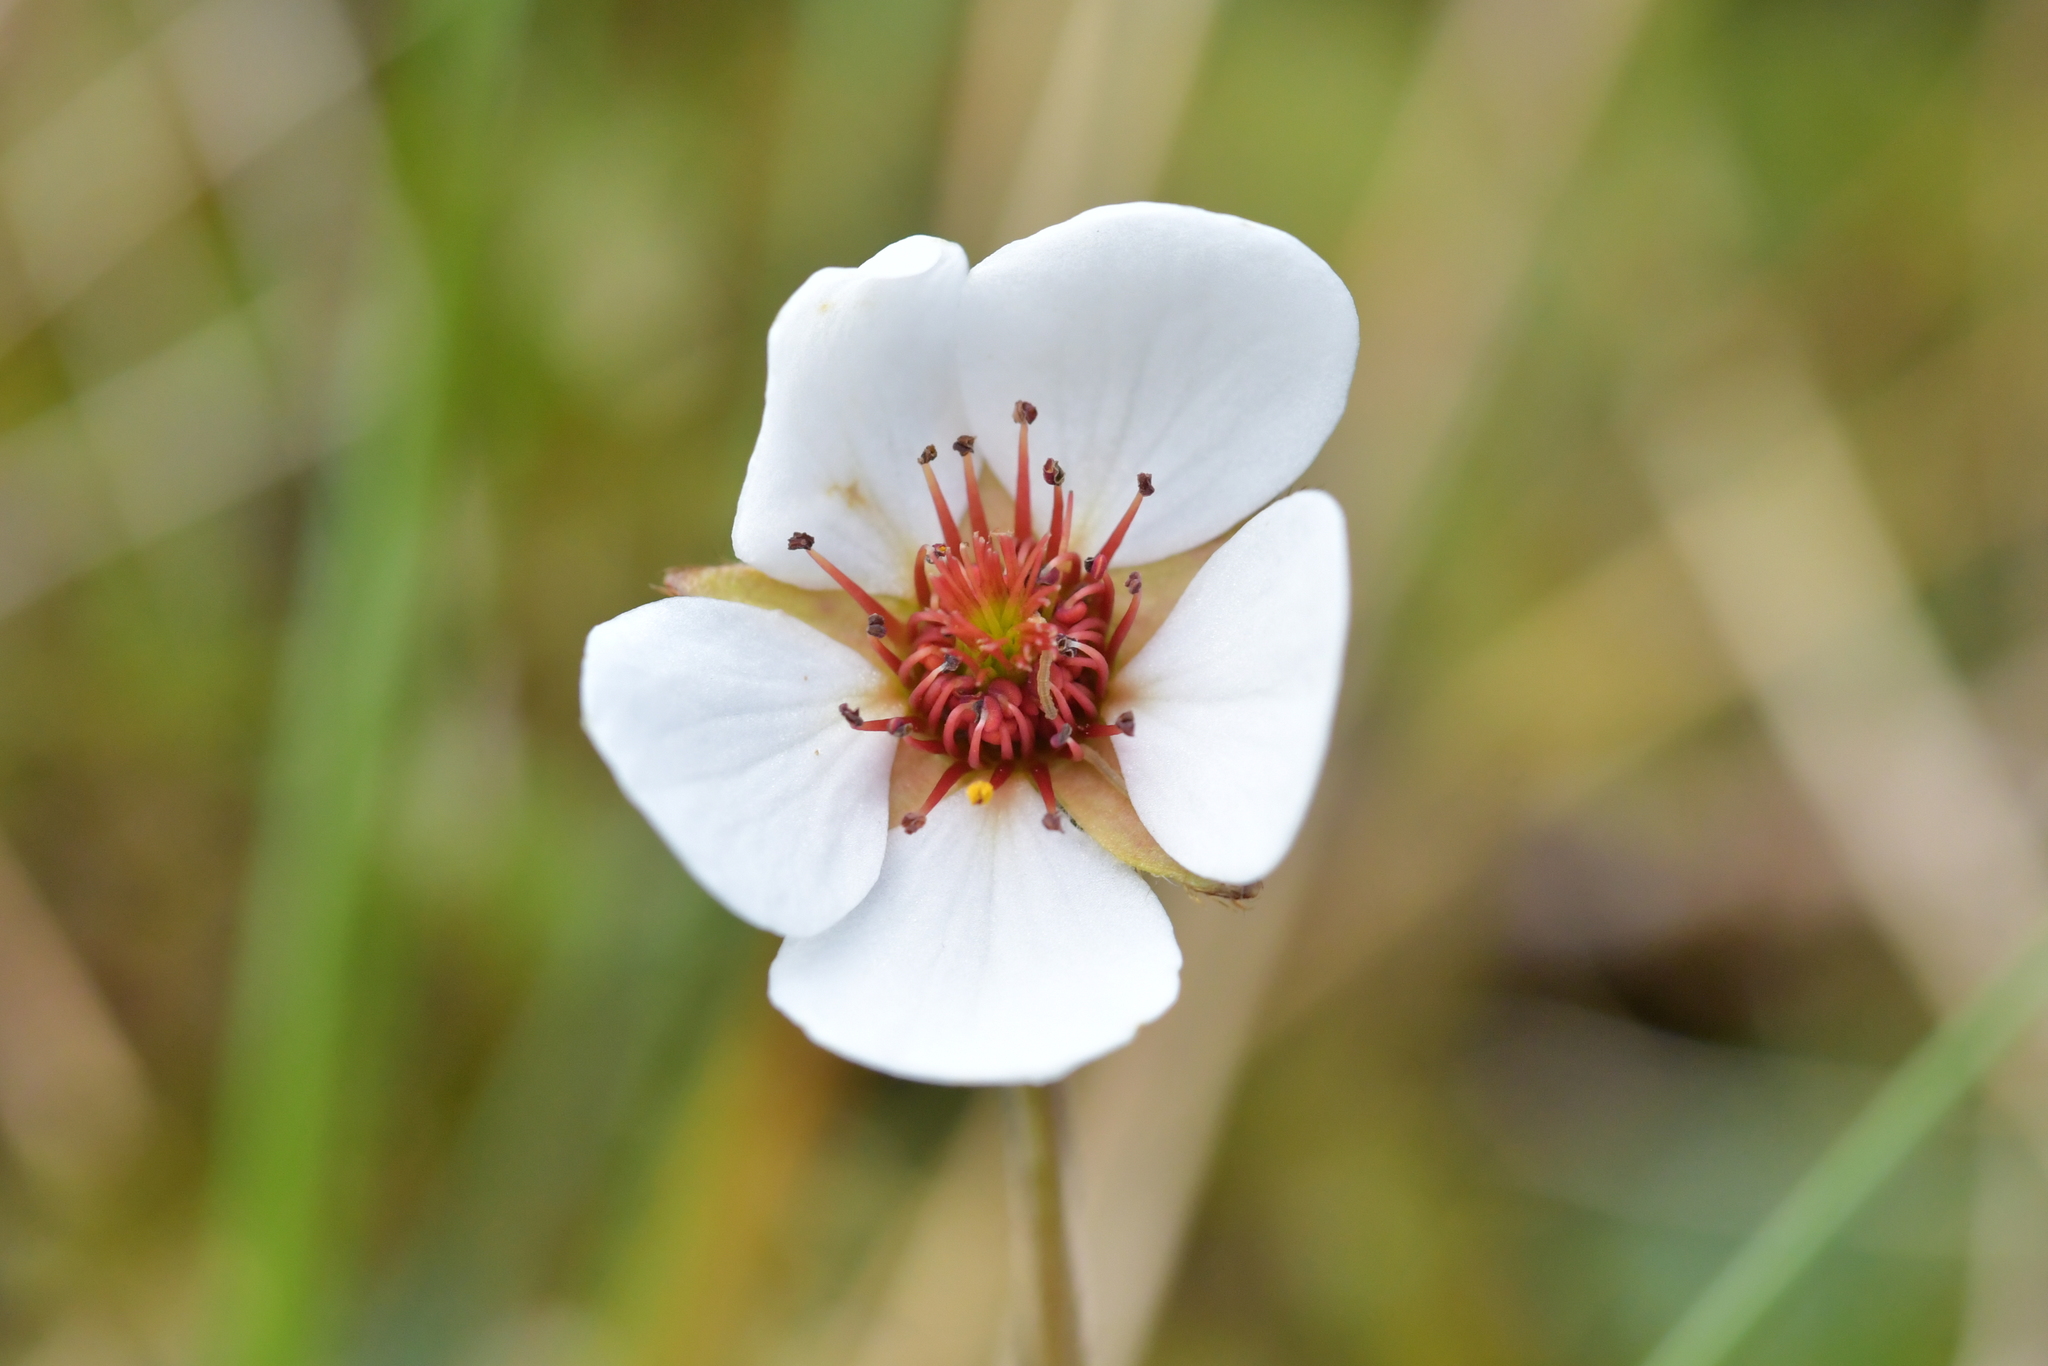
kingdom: Plantae
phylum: Tracheophyta
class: Magnoliopsida
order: Rosales
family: Rosaceae
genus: Geum
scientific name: Geum uniflorum
